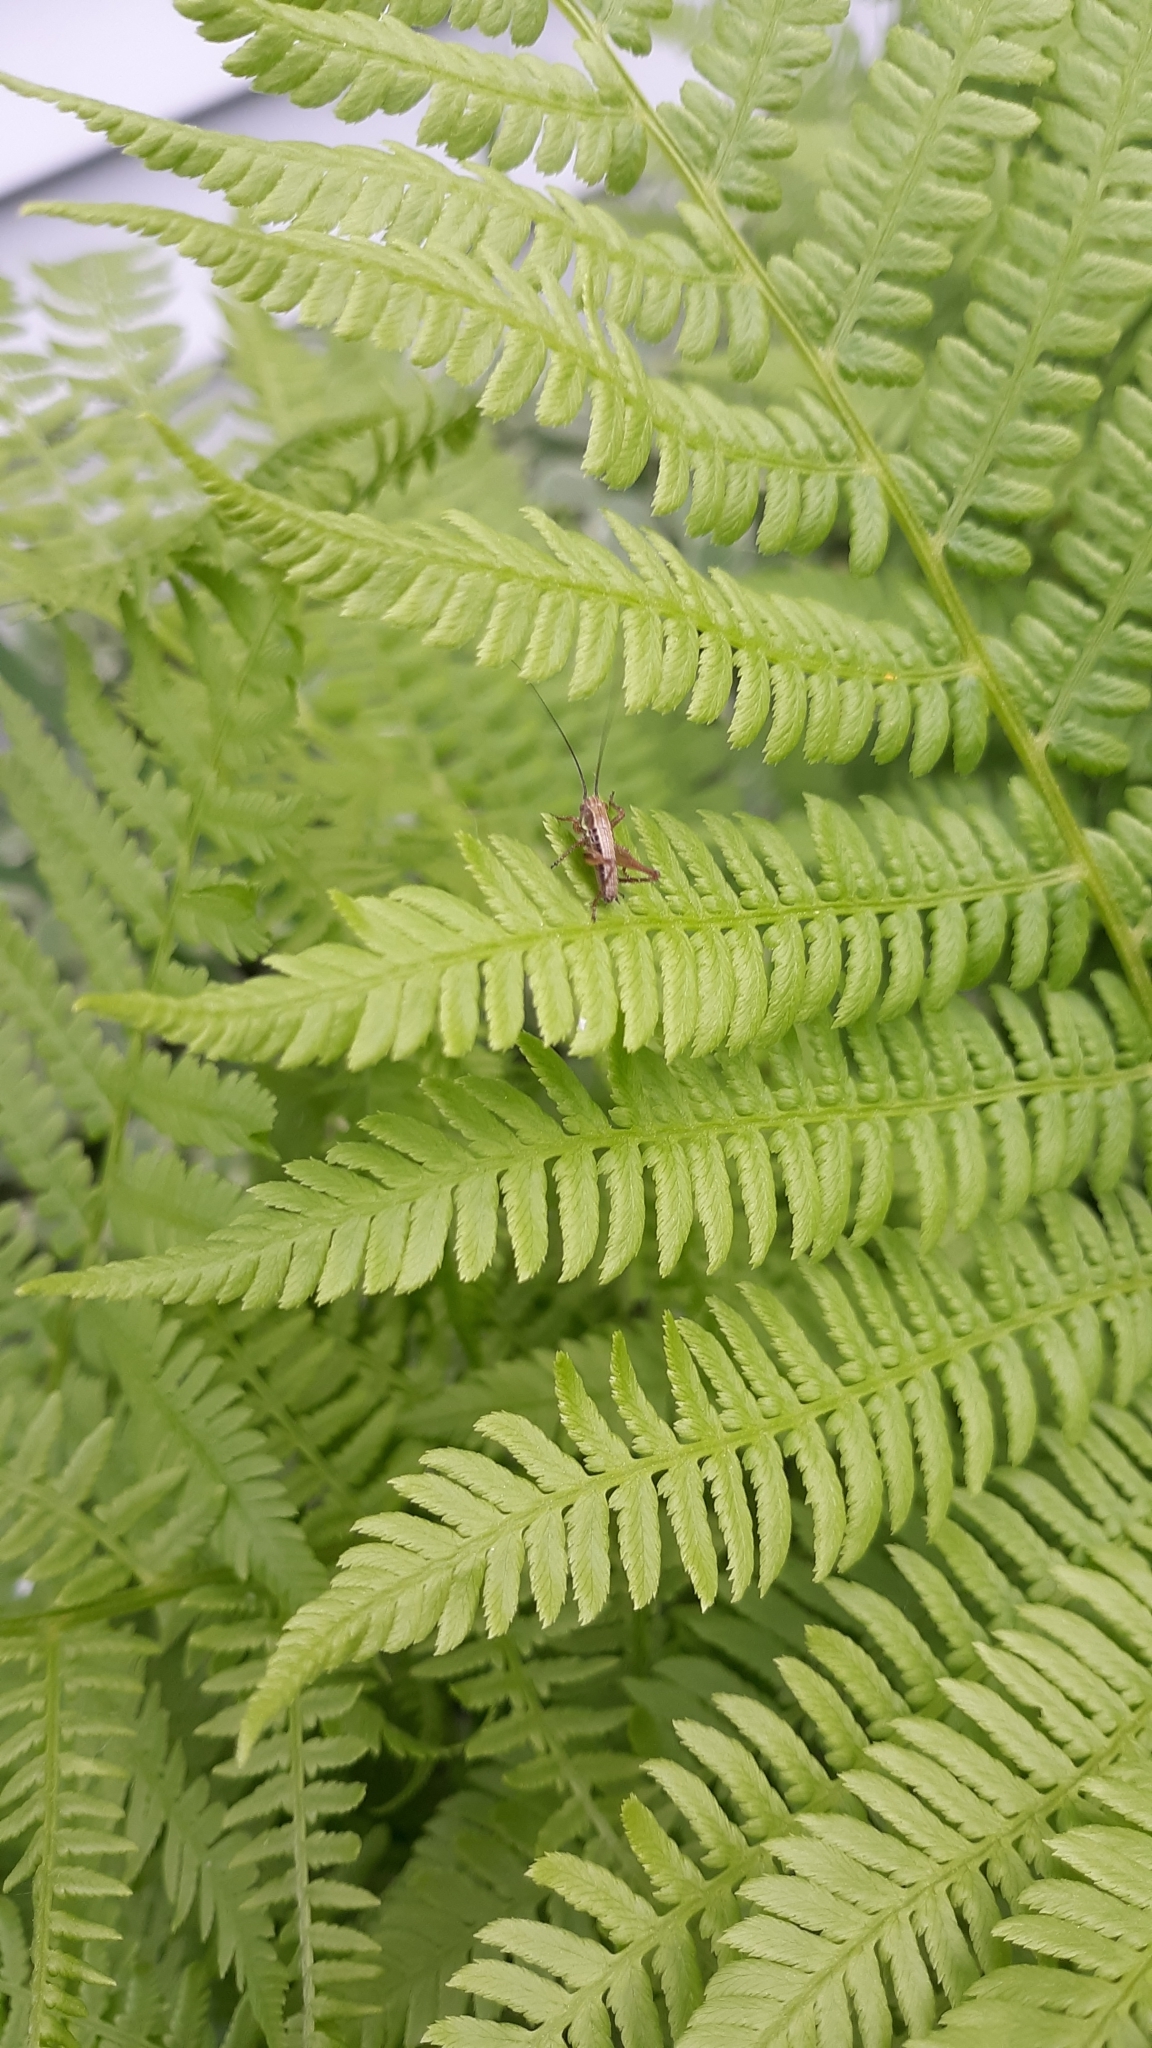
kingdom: Animalia
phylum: Arthropoda
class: Insecta
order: Orthoptera
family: Tettigoniidae
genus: Roeseliana
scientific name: Roeseliana roeselii
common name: Roesel's bush cricket
